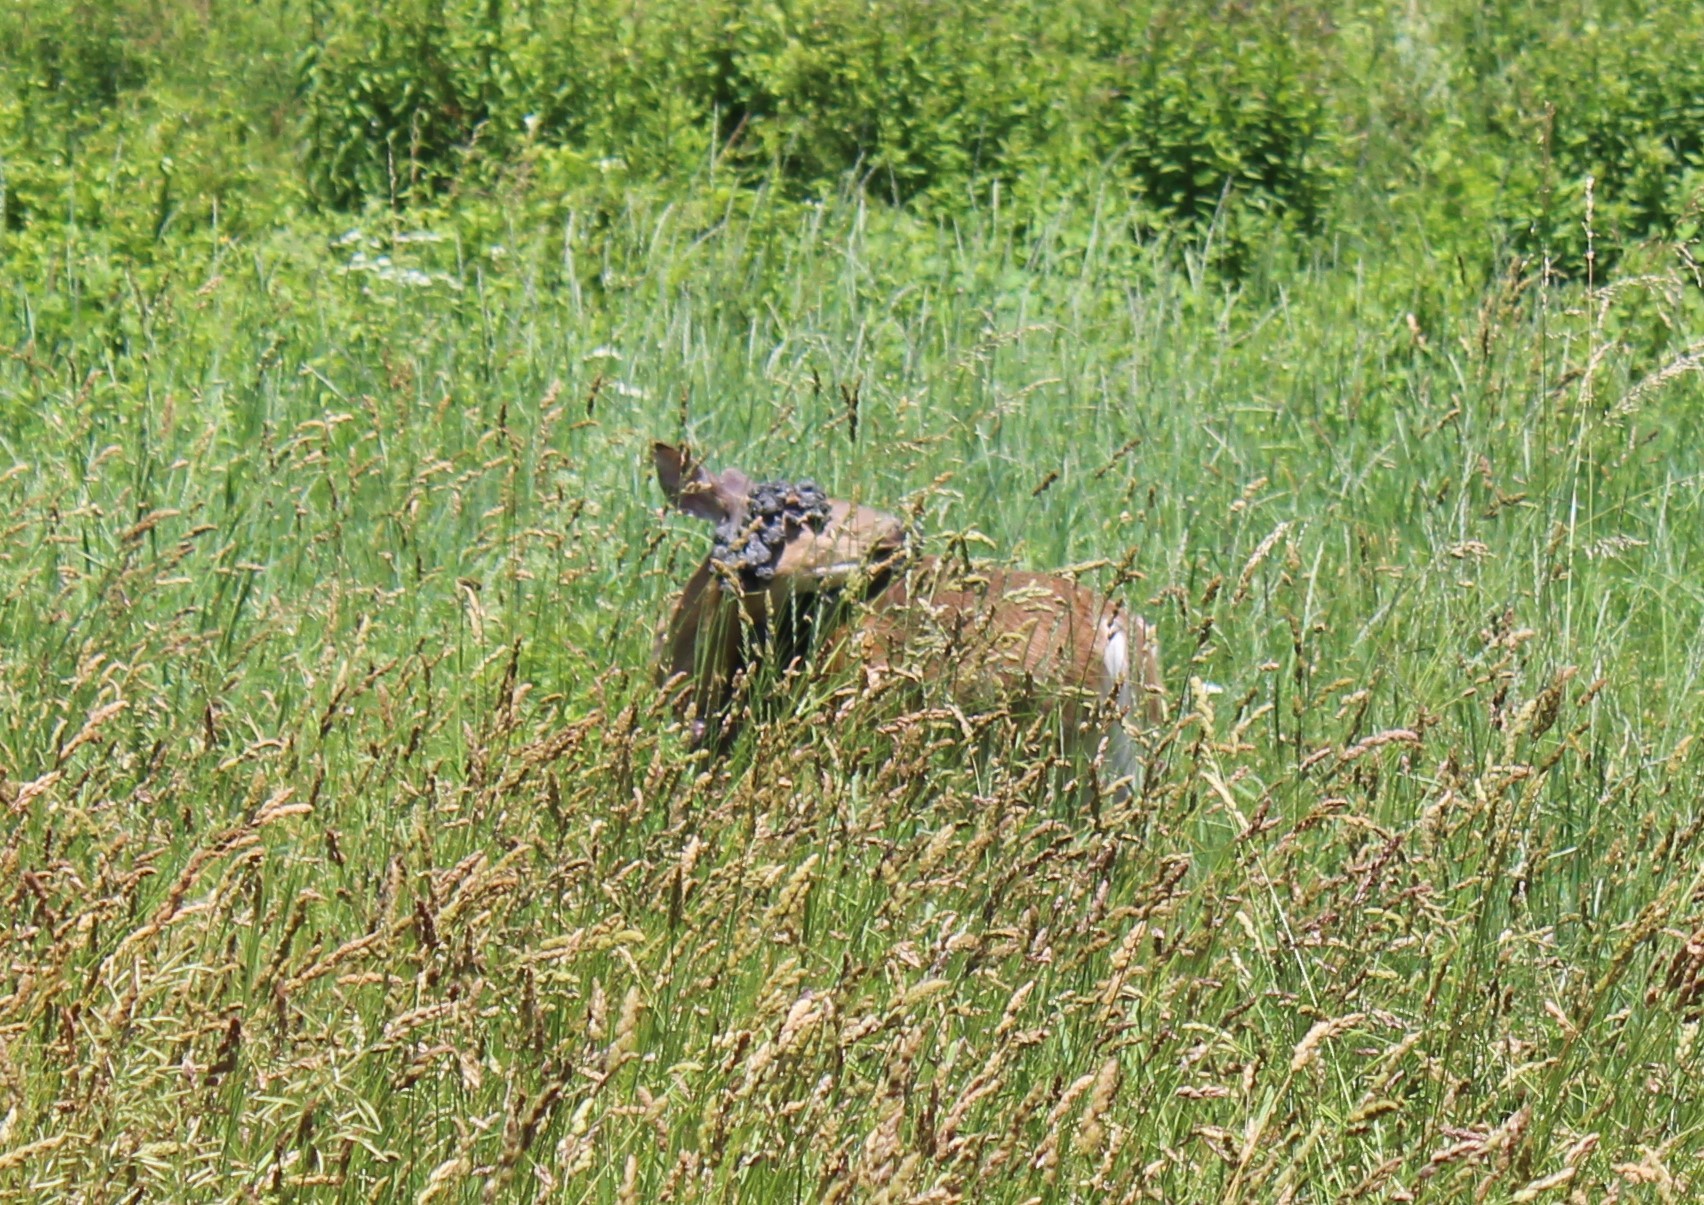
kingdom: Animalia
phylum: Chordata
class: Mammalia
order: Artiodactyla
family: Cervidae
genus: Odocoileus
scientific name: Odocoileus virginianus
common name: White-tailed deer
